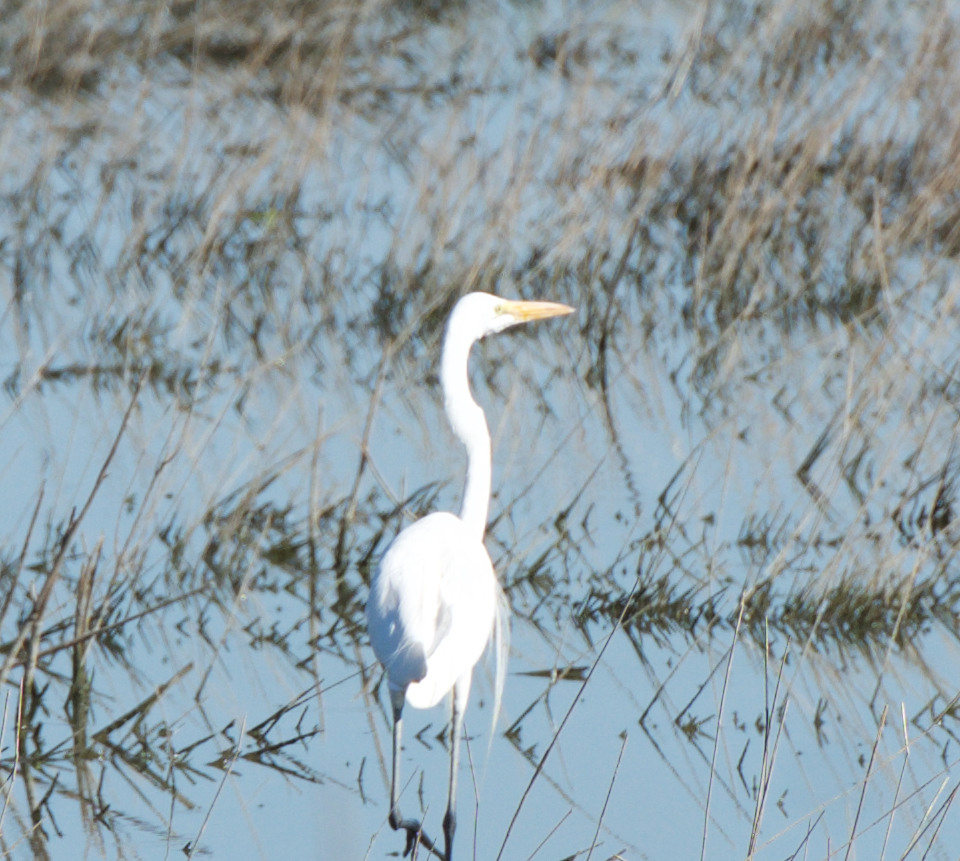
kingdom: Animalia
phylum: Chordata
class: Aves
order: Pelecaniformes
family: Ardeidae
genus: Ardea
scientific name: Ardea alba
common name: Great egret
